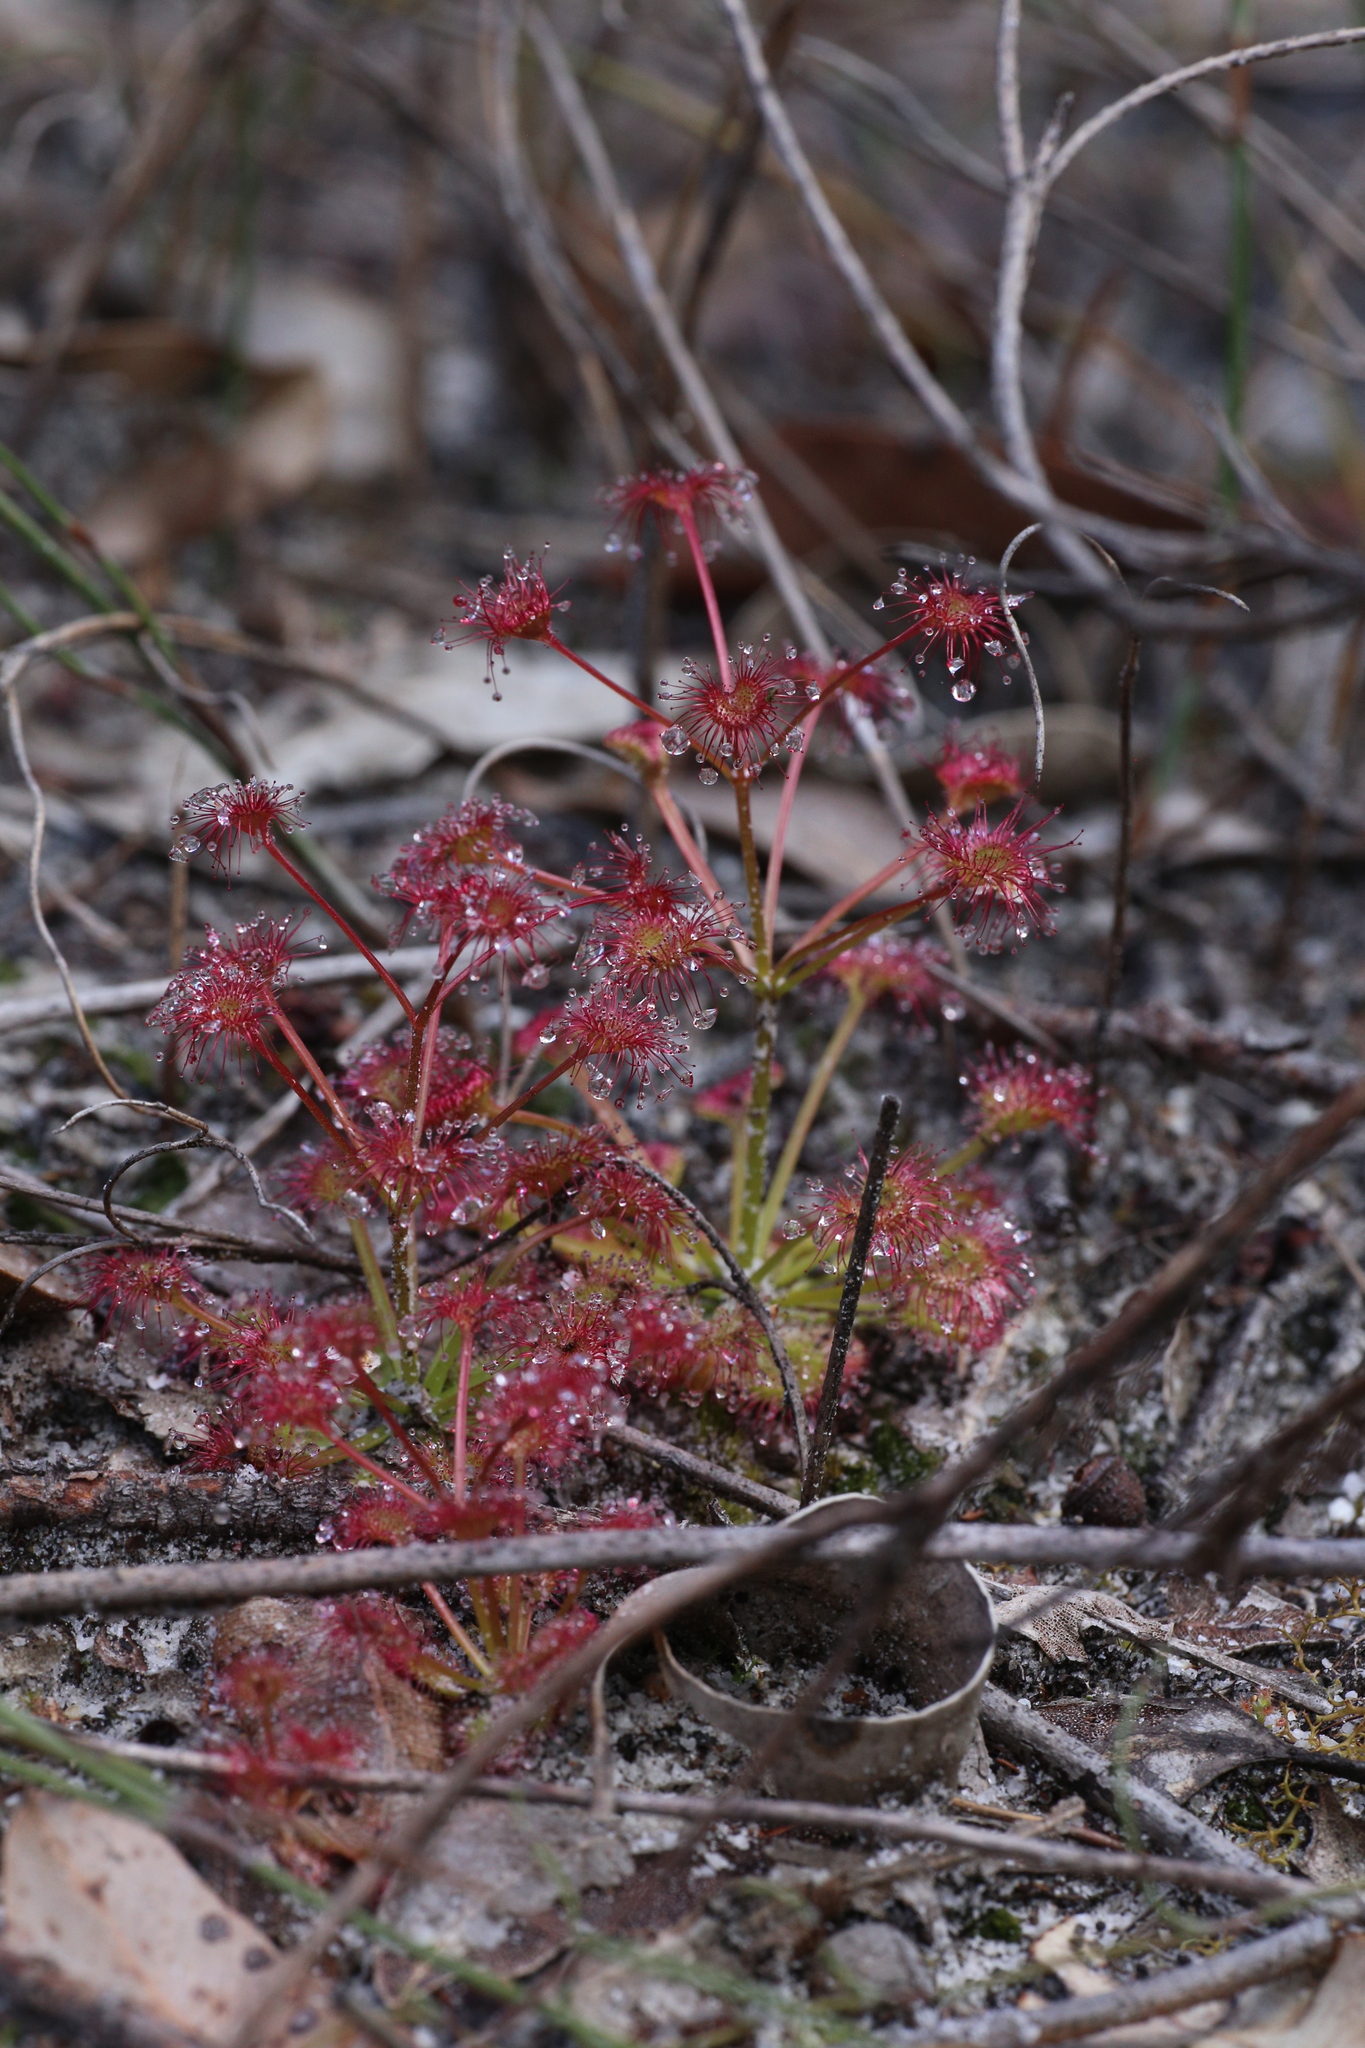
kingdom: Plantae
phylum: Tracheophyta
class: Magnoliopsida
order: Caryophyllales
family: Droseraceae
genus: Drosera
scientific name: Drosera stolonifera
